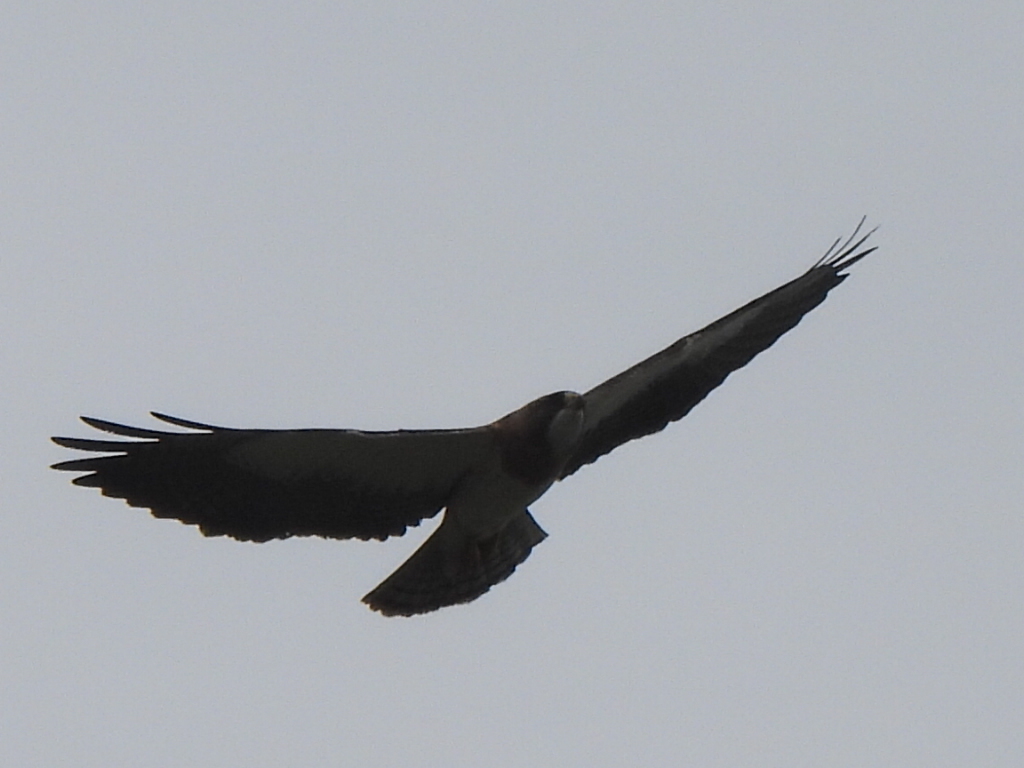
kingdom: Animalia
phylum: Chordata
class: Aves
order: Accipitriformes
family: Accipitridae
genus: Buteo
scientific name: Buteo swainsoni
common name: Swainson's hawk
